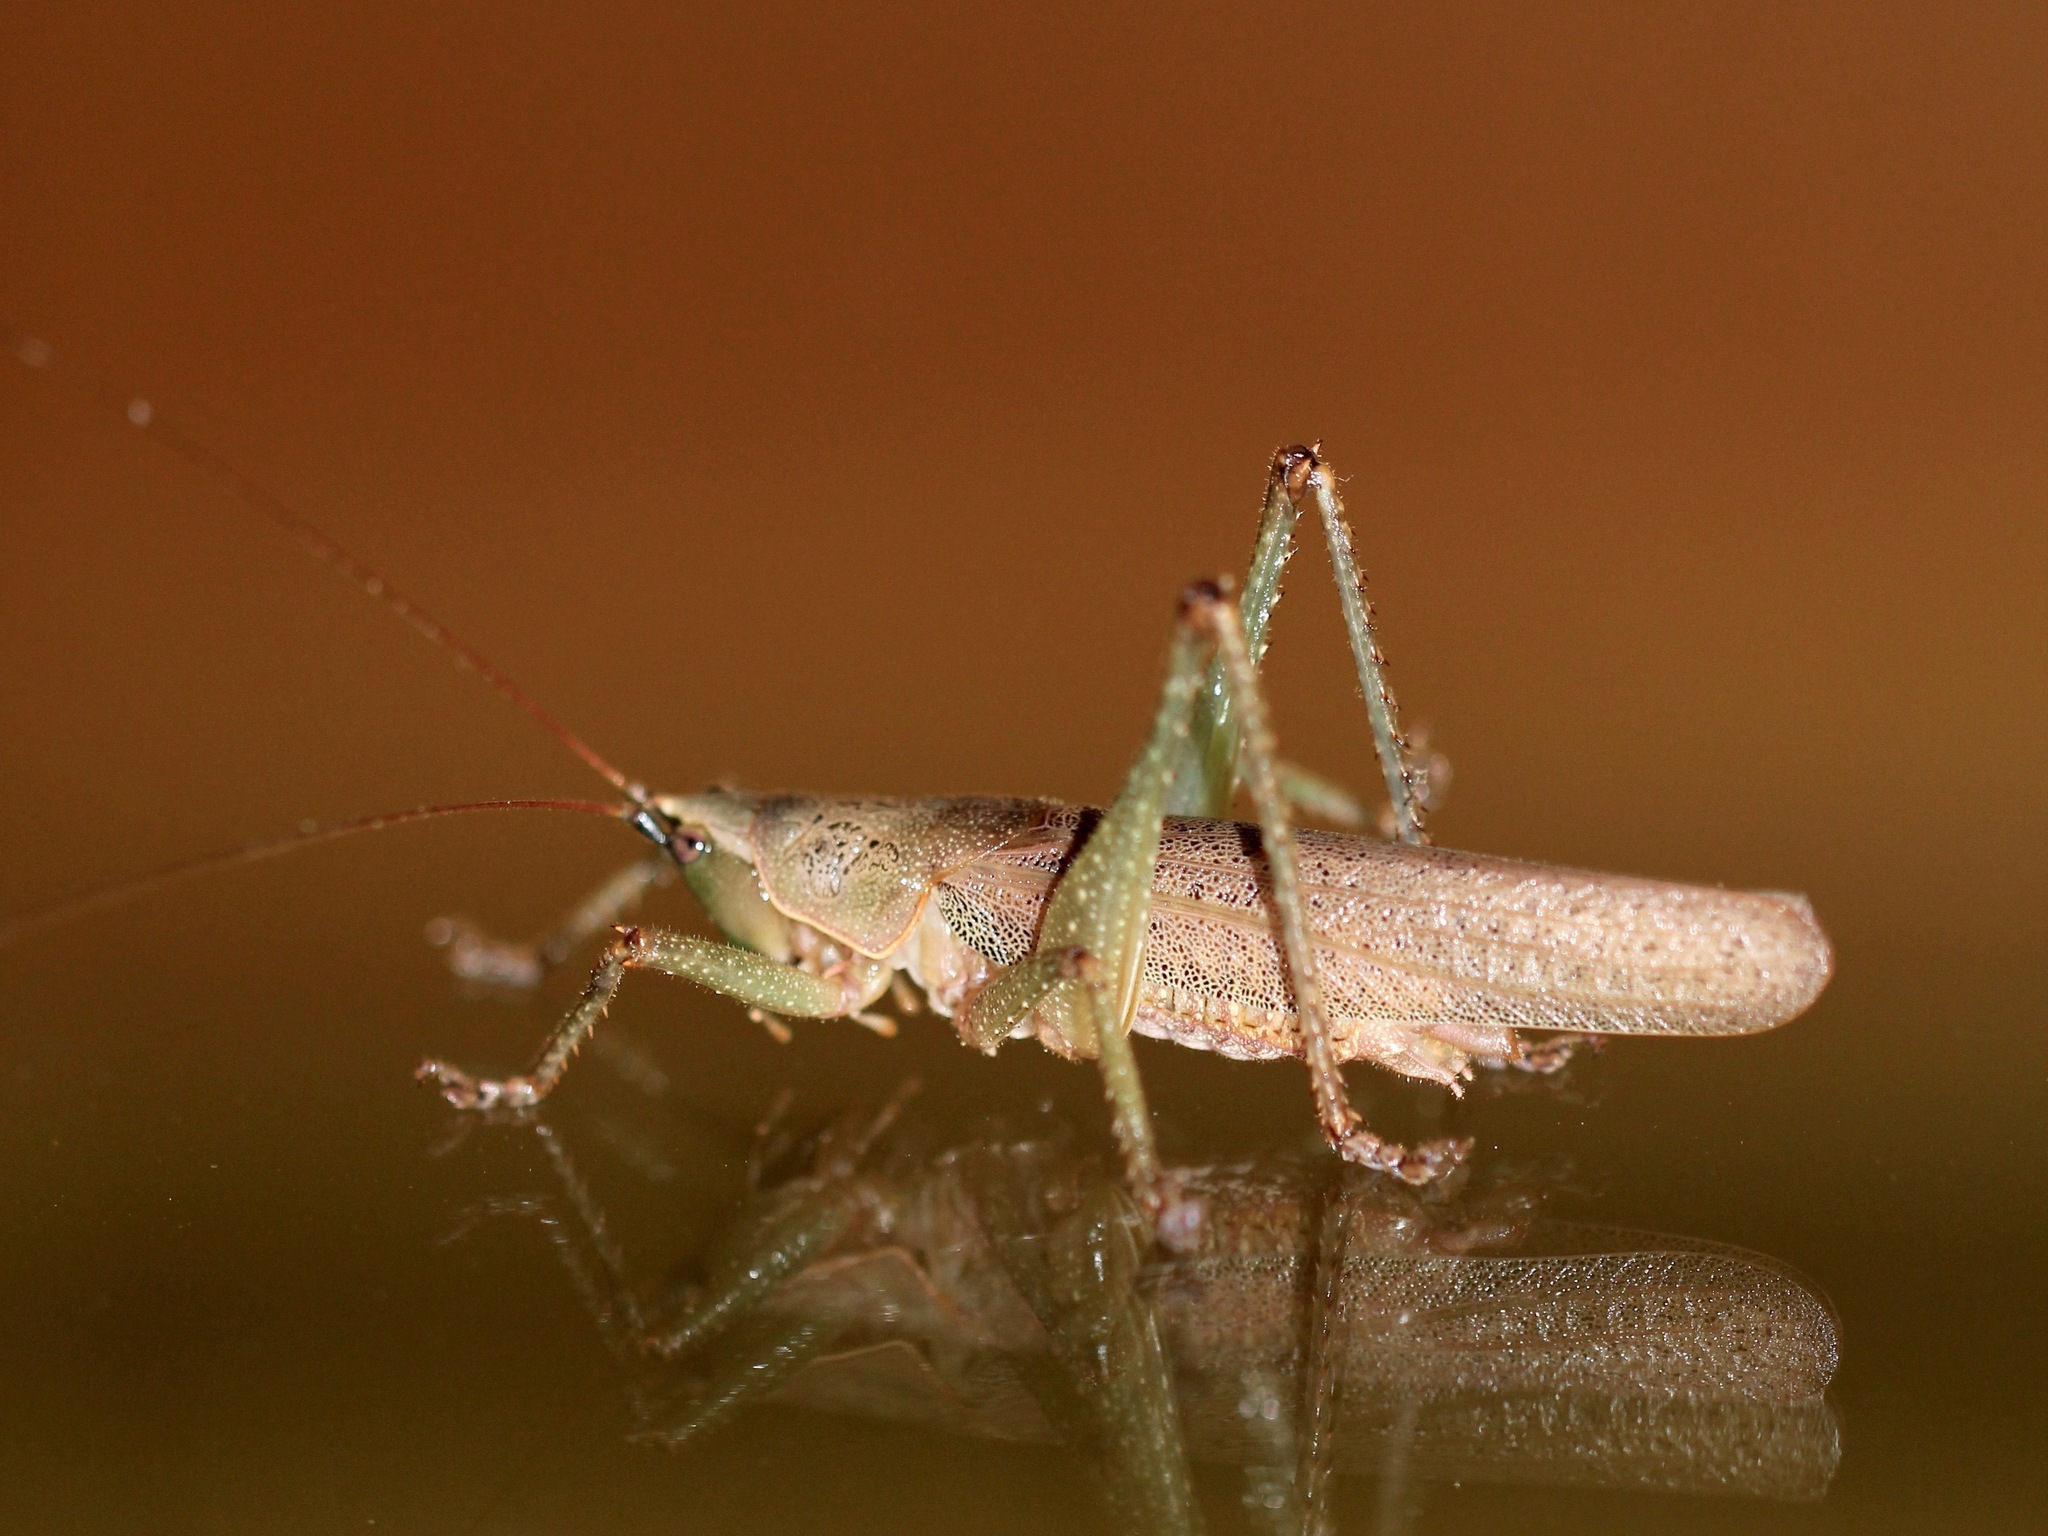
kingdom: Animalia
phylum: Arthropoda
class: Insecta
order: Orthoptera
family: Tettigoniidae
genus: Austrosalomona
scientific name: Austrosalomona falcata
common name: Olive-green coastal katydid
